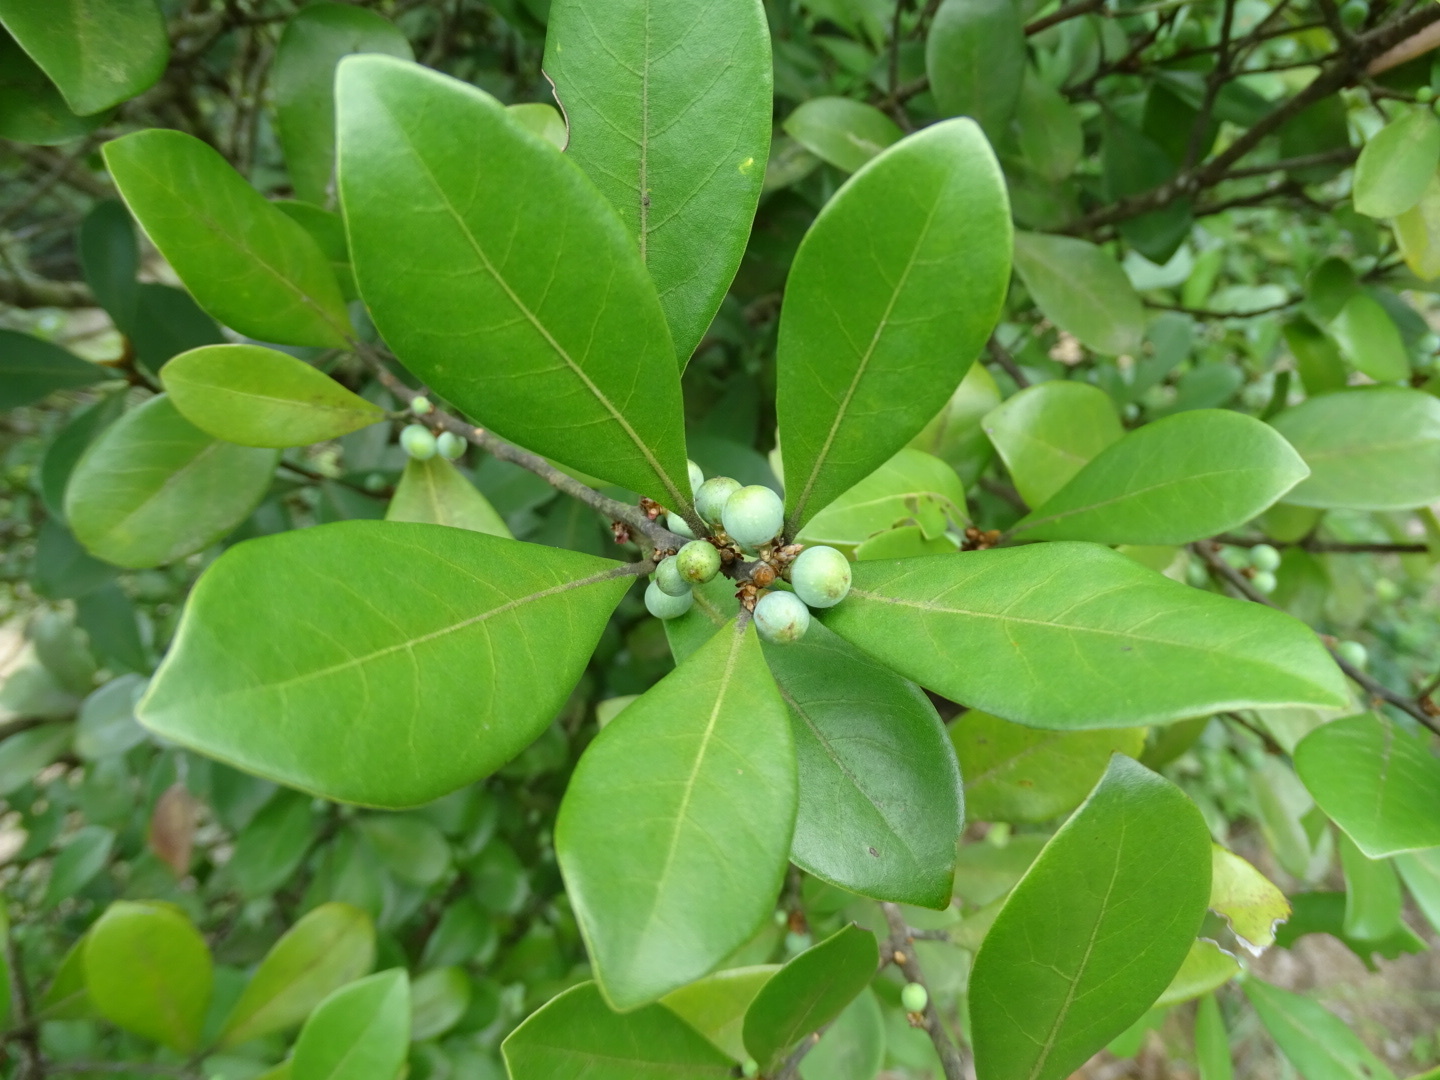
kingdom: Plantae
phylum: Tracheophyta
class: Magnoliopsida
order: Laurales
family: Lauraceae
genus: Litsea
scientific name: Litsea rotundifolia
